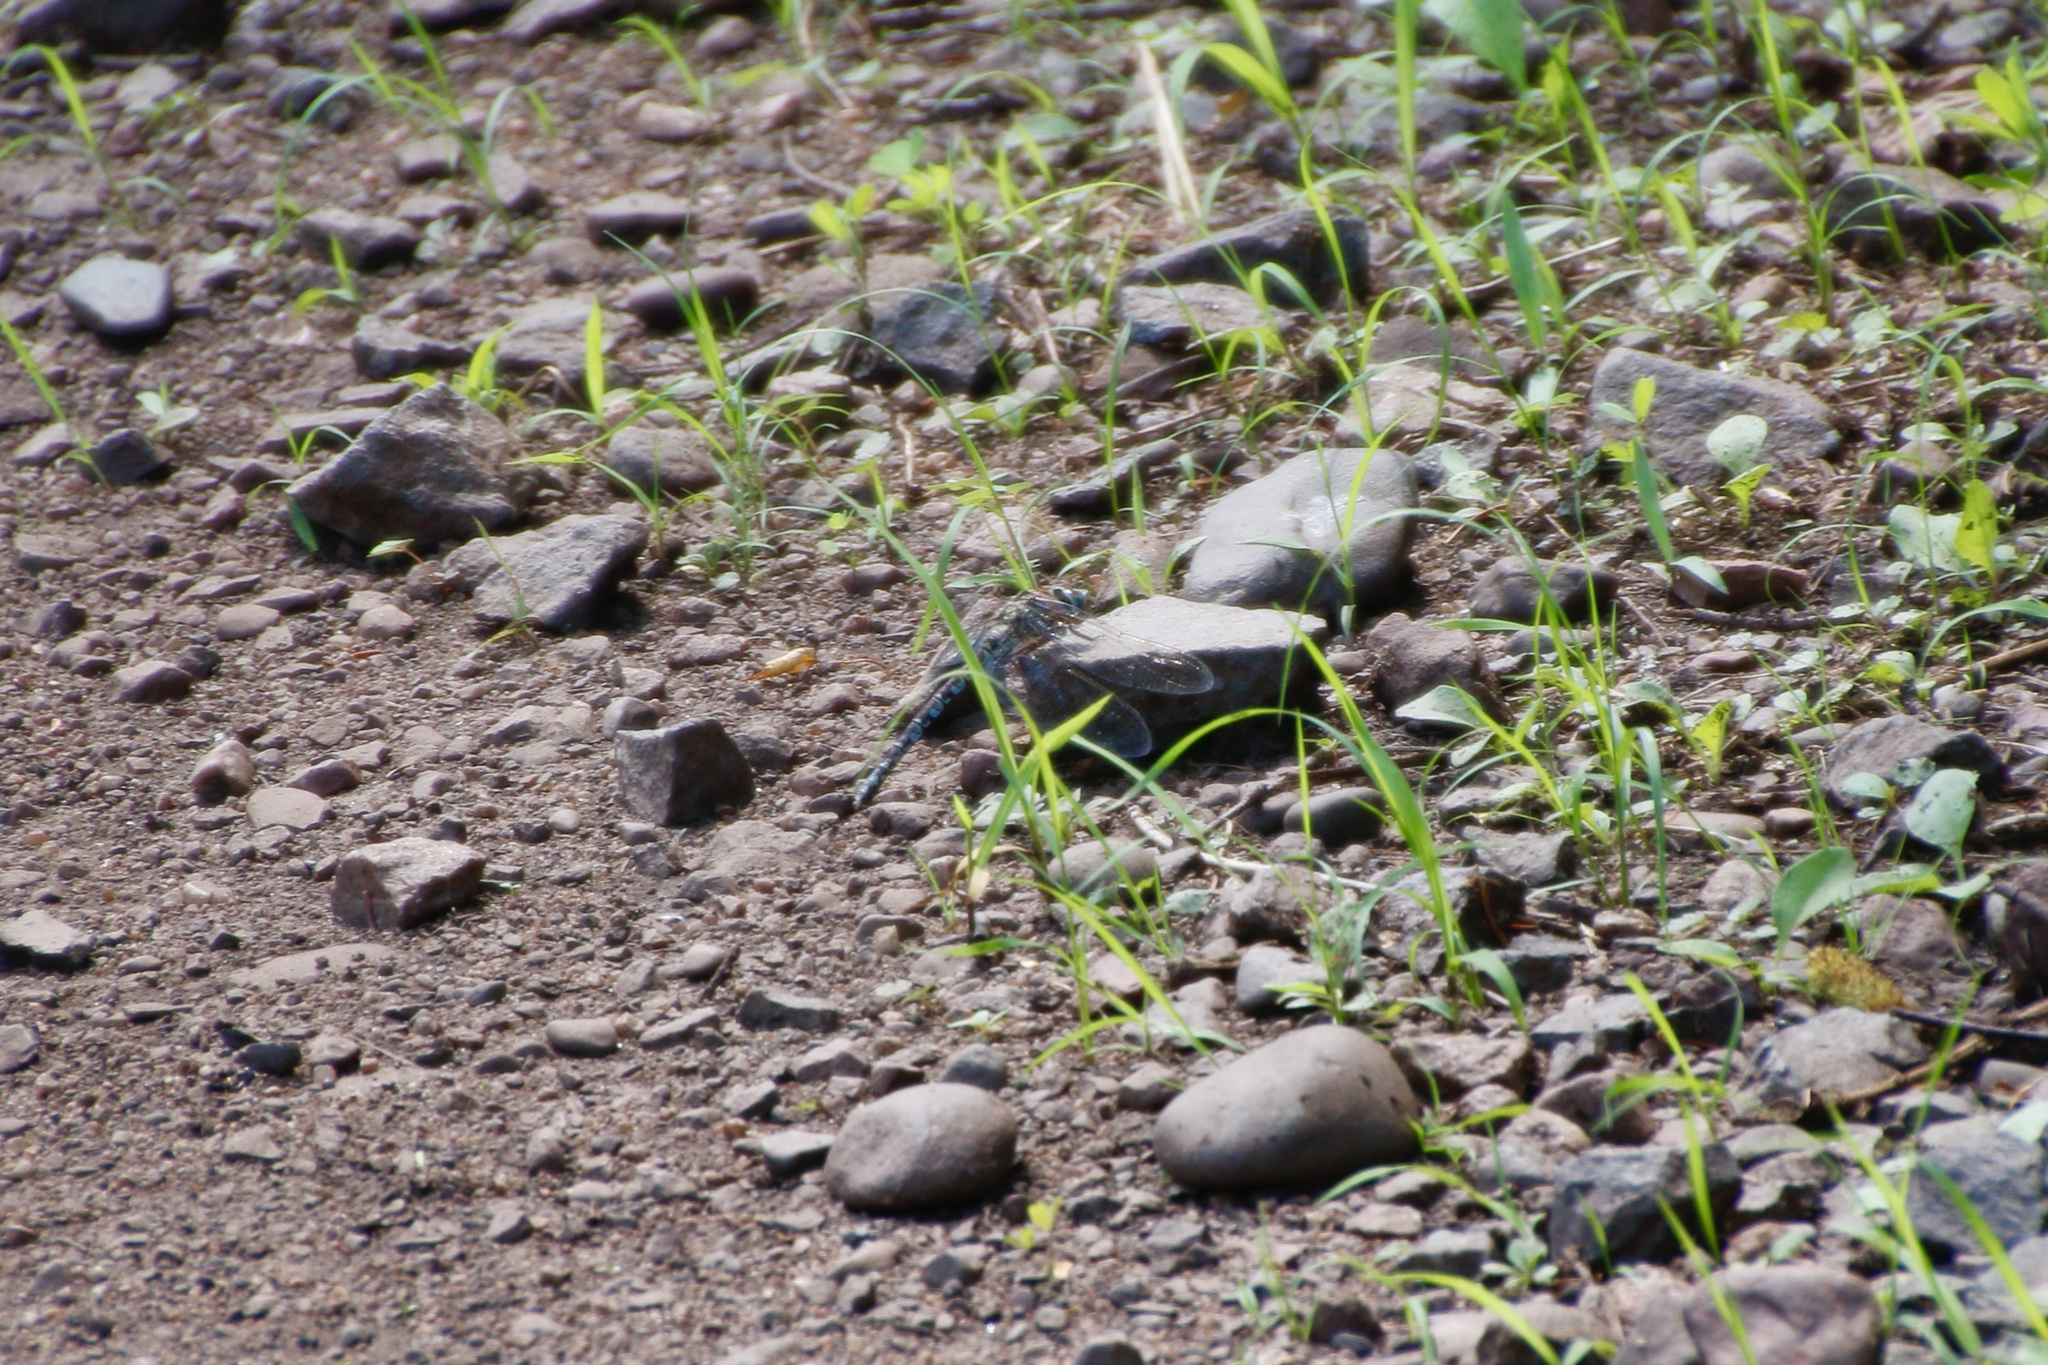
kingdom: Animalia
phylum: Arthropoda
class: Insecta
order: Odonata
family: Aeshnidae
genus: Aeshna
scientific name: Aeshna sitchensis
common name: Zigzag darner
